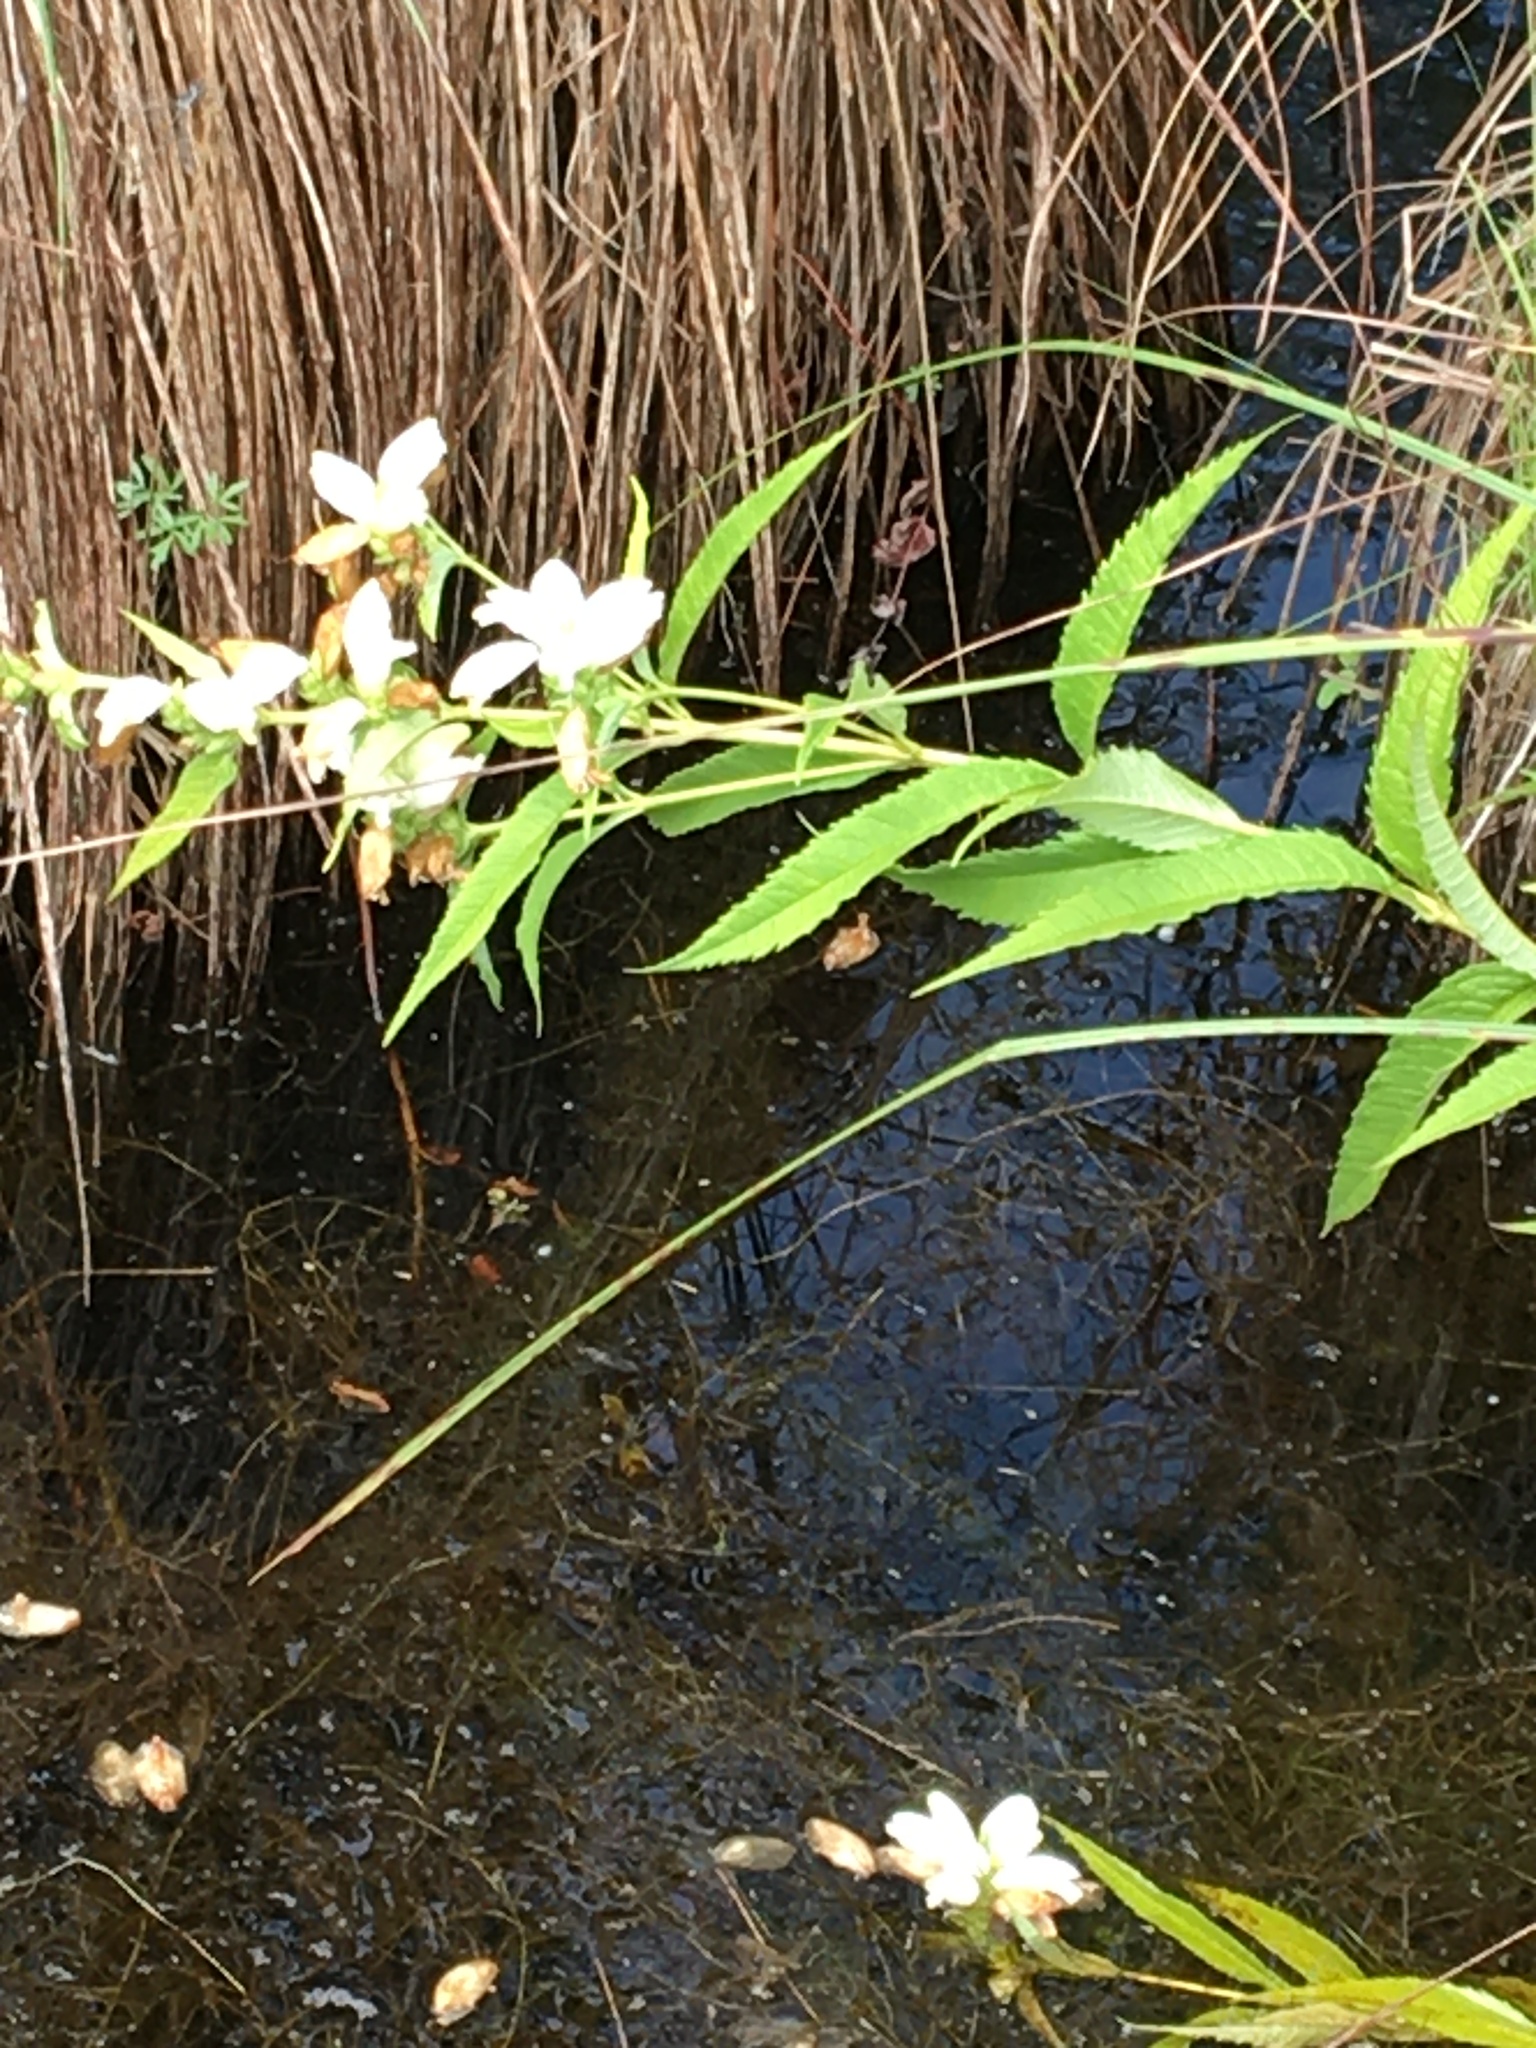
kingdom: Plantae
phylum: Tracheophyta
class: Magnoliopsida
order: Lamiales
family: Plantaginaceae
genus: Chelone
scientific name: Chelone glabra
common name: Snakehead
